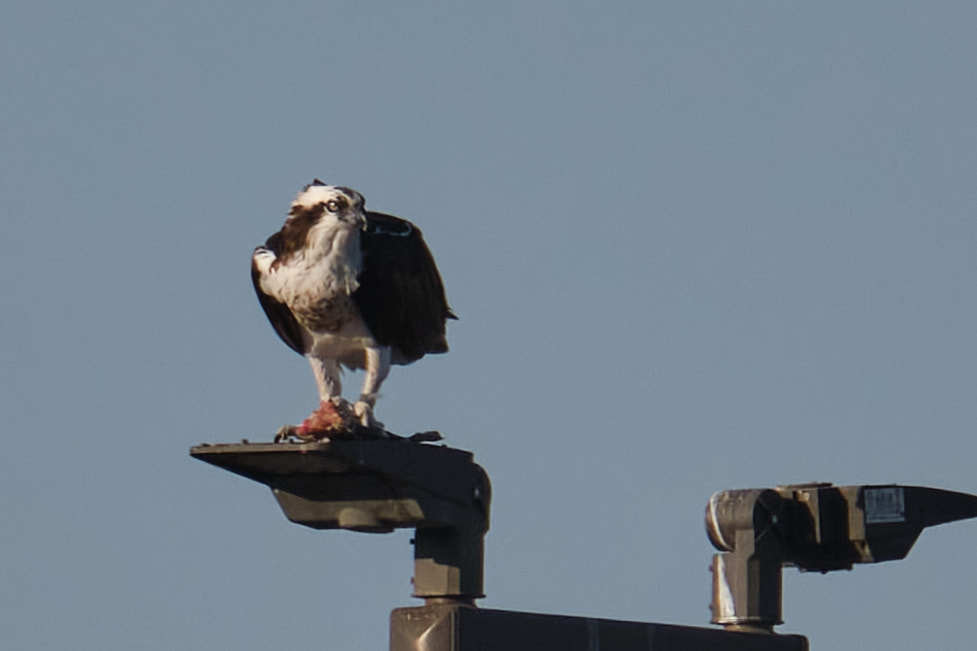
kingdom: Animalia
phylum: Chordata
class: Aves
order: Accipitriformes
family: Pandionidae
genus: Pandion
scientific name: Pandion haliaetus
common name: Osprey
